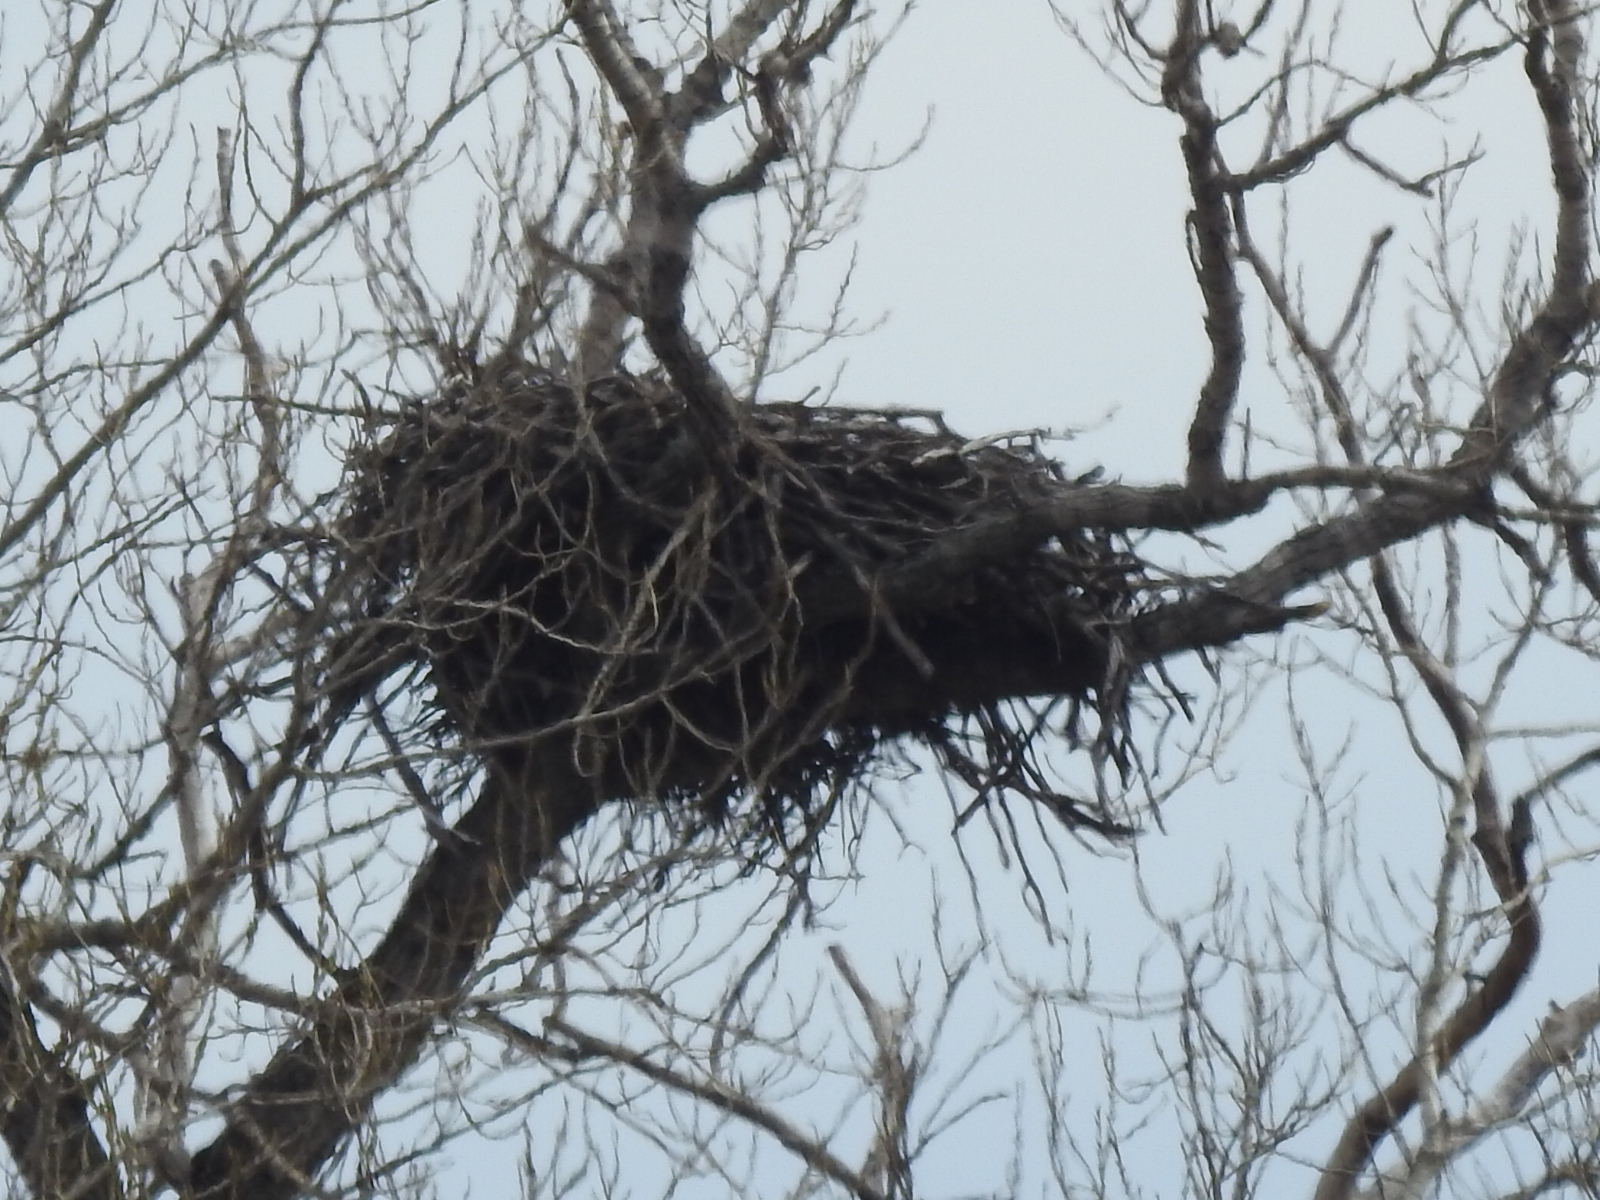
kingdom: Animalia
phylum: Chordata
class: Aves
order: Accipitriformes
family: Accipitridae
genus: Haliaeetus
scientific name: Haliaeetus leucocephalus
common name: Bald eagle
